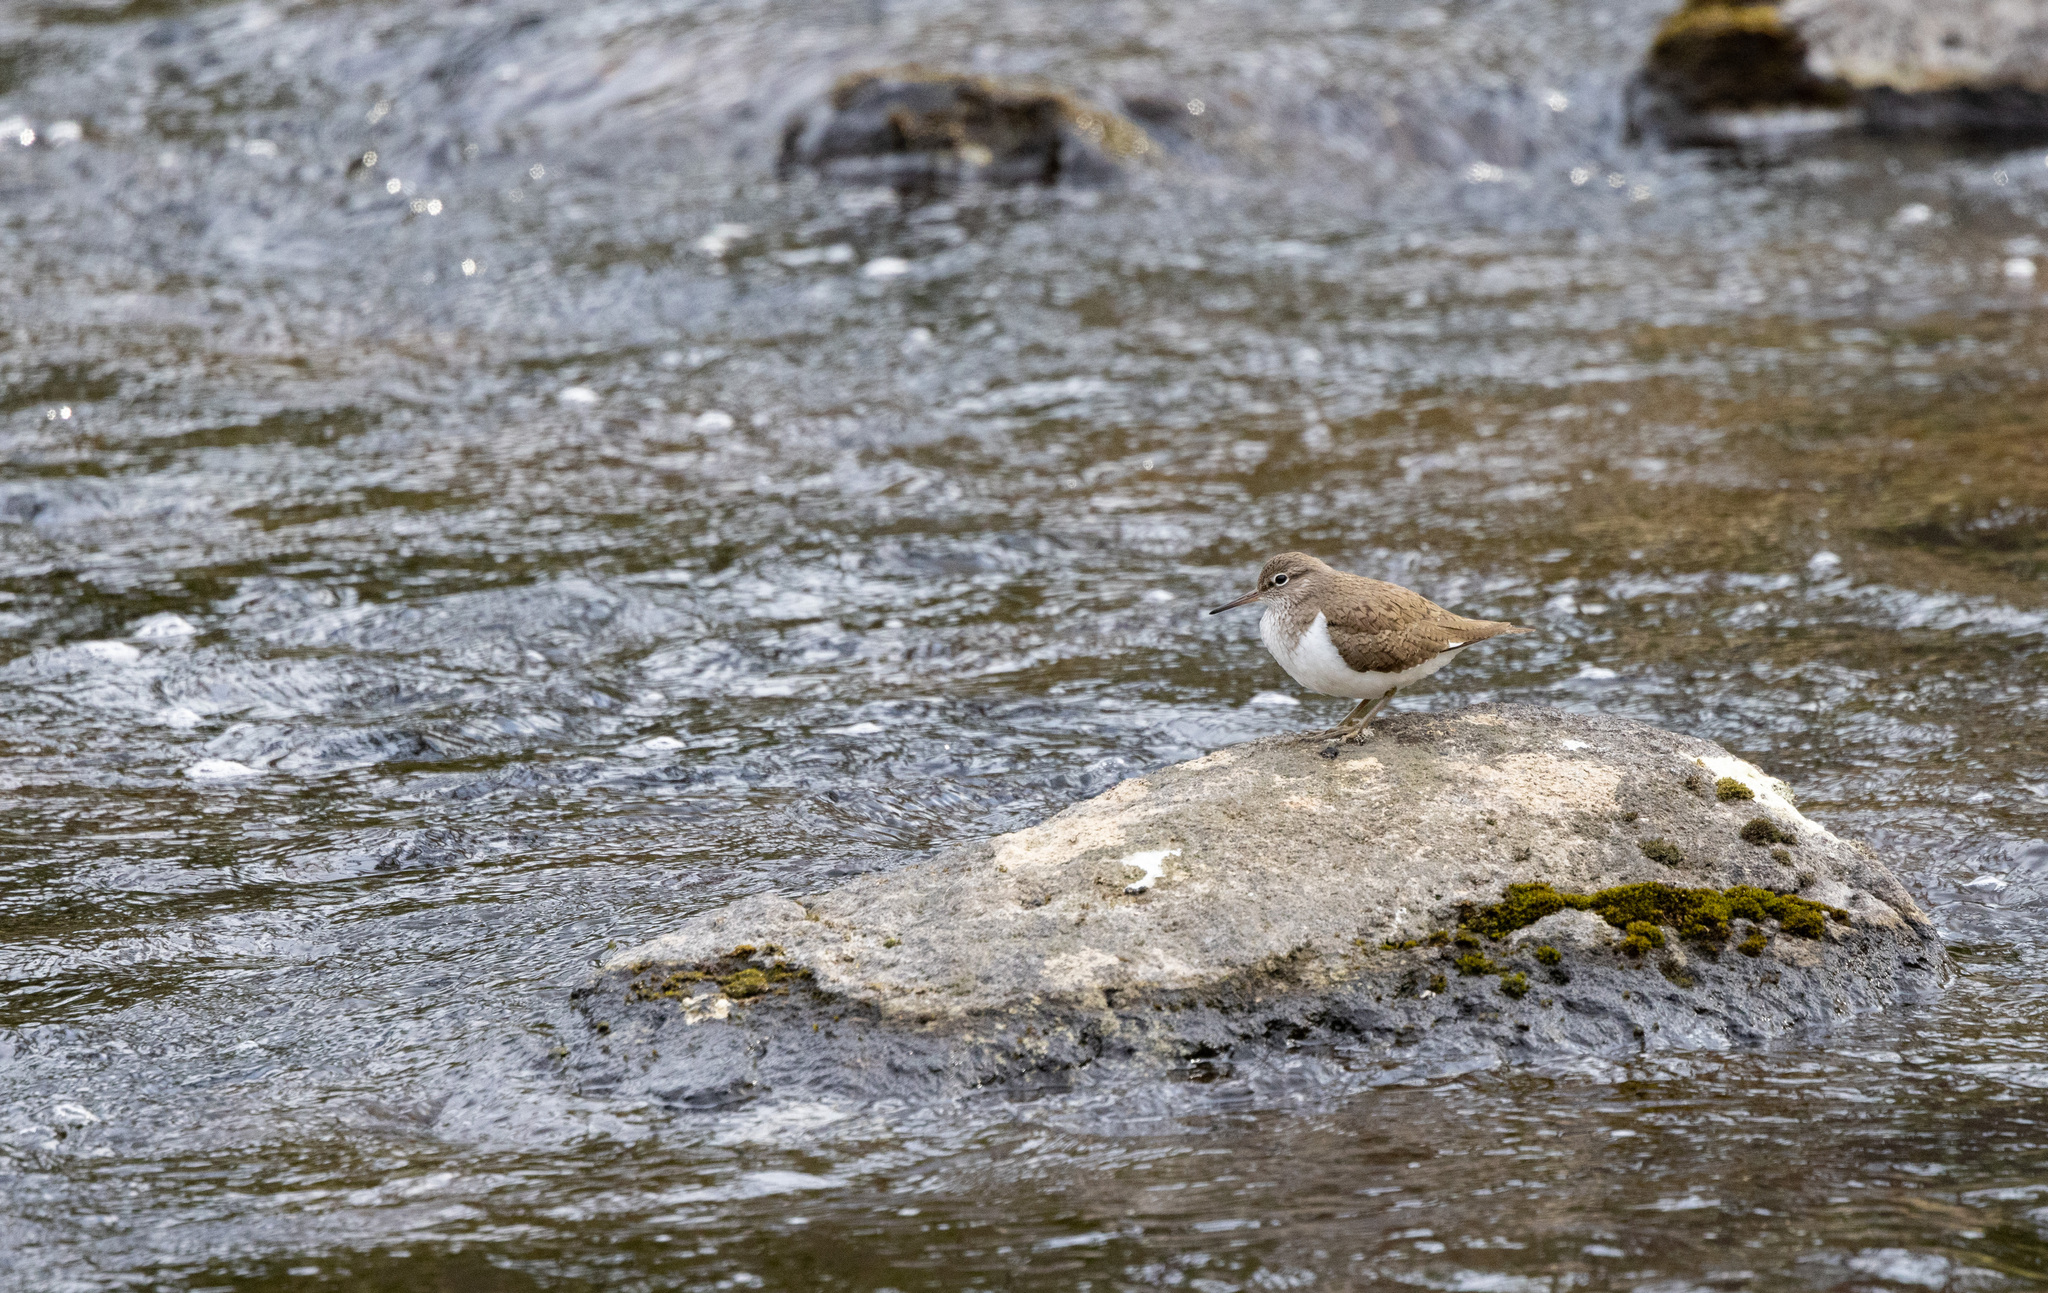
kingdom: Animalia
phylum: Chordata
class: Aves
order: Charadriiformes
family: Scolopacidae
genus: Actitis
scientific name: Actitis hypoleucos
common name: Common sandpiper
